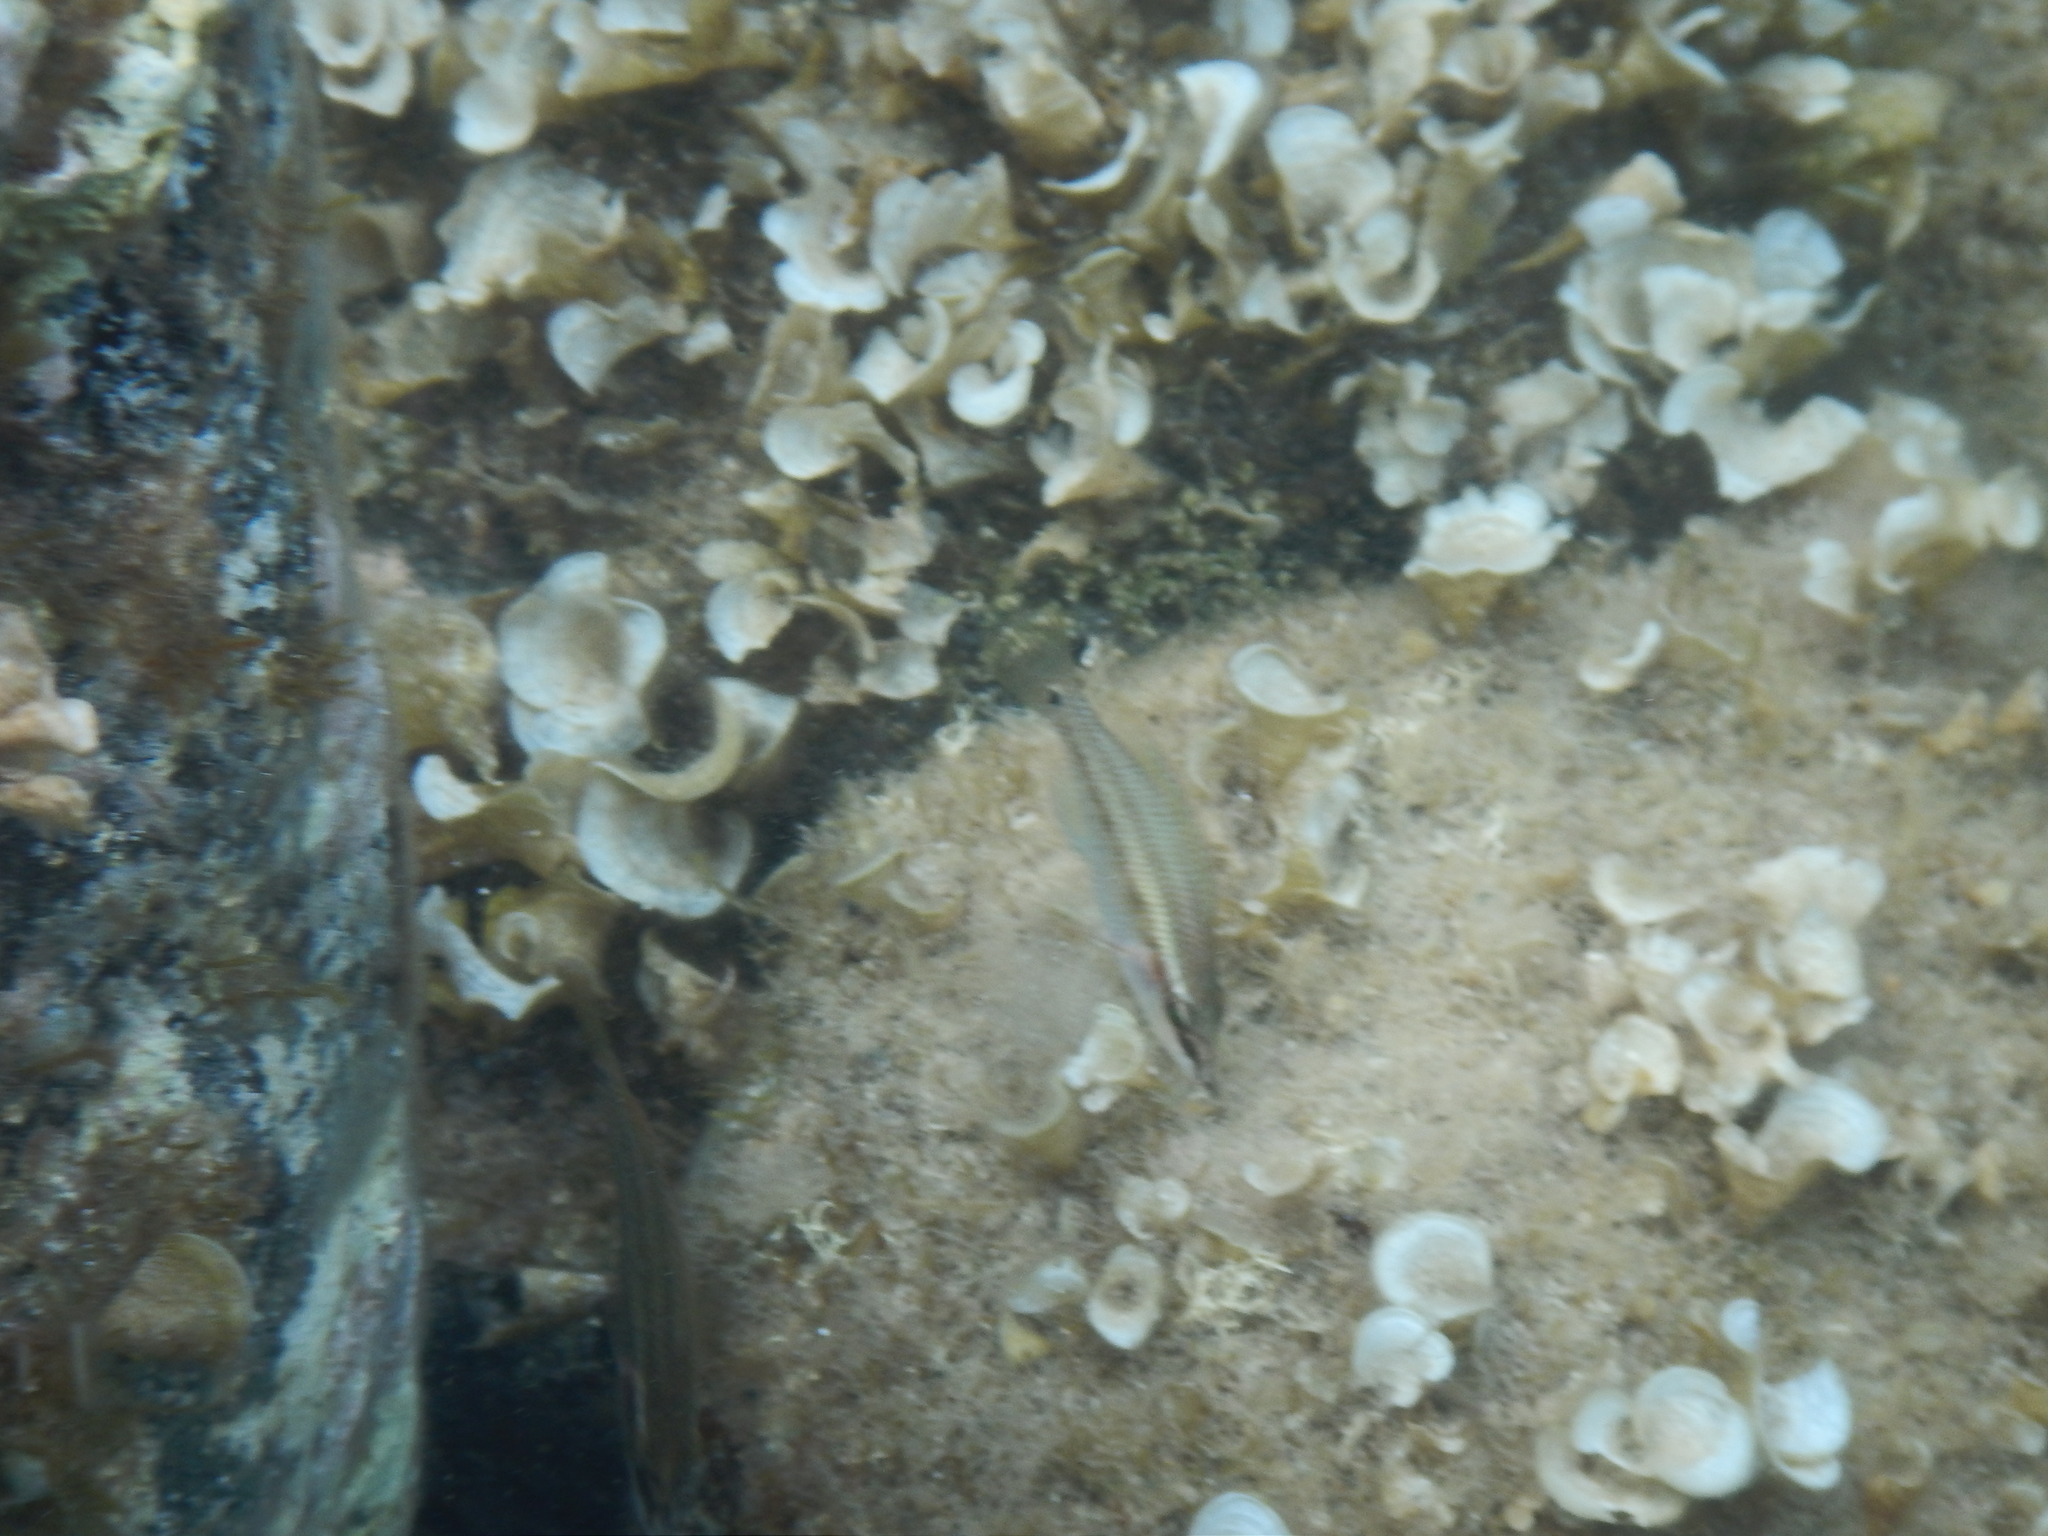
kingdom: Animalia
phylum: Chordata
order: Perciformes
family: Labridae
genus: Symphodus
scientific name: Symphodus tinca
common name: Peacock wrasse
